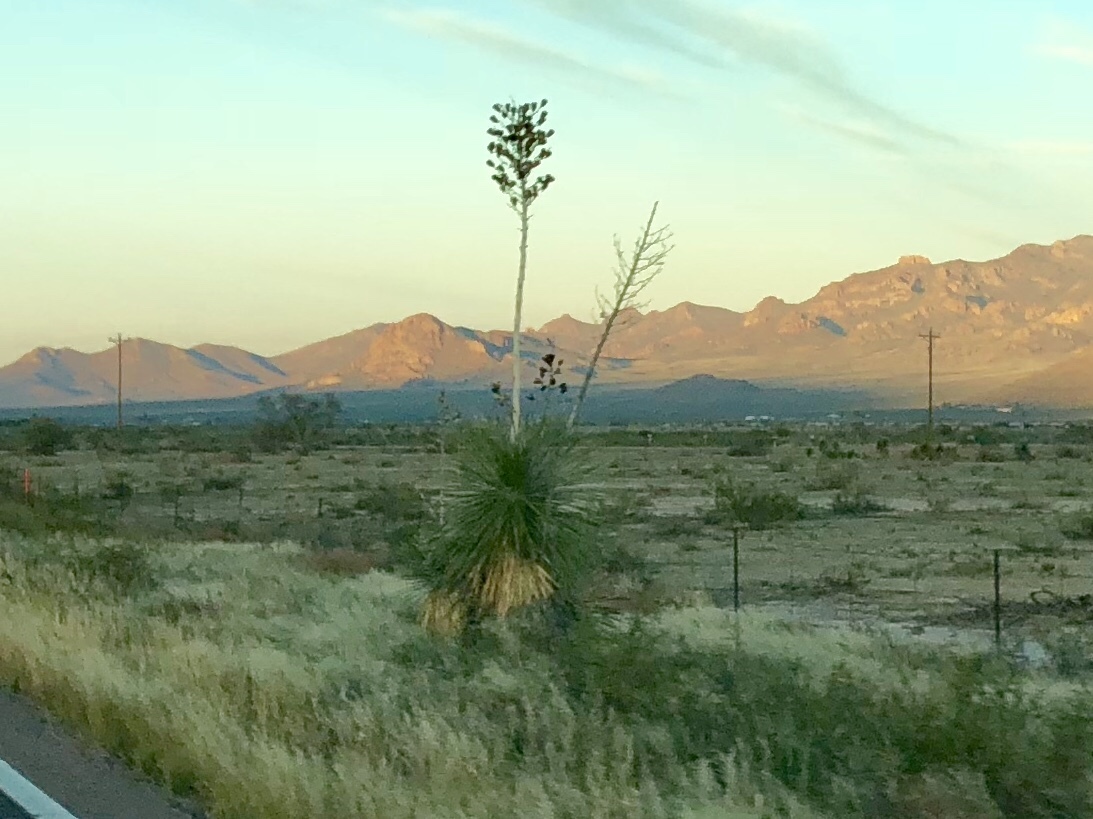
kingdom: Plantae
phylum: Tracheophyta
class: Liliopsida
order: Asparagales
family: Asparagaceae
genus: Yucca
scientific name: Yucca elata
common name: Palmella
